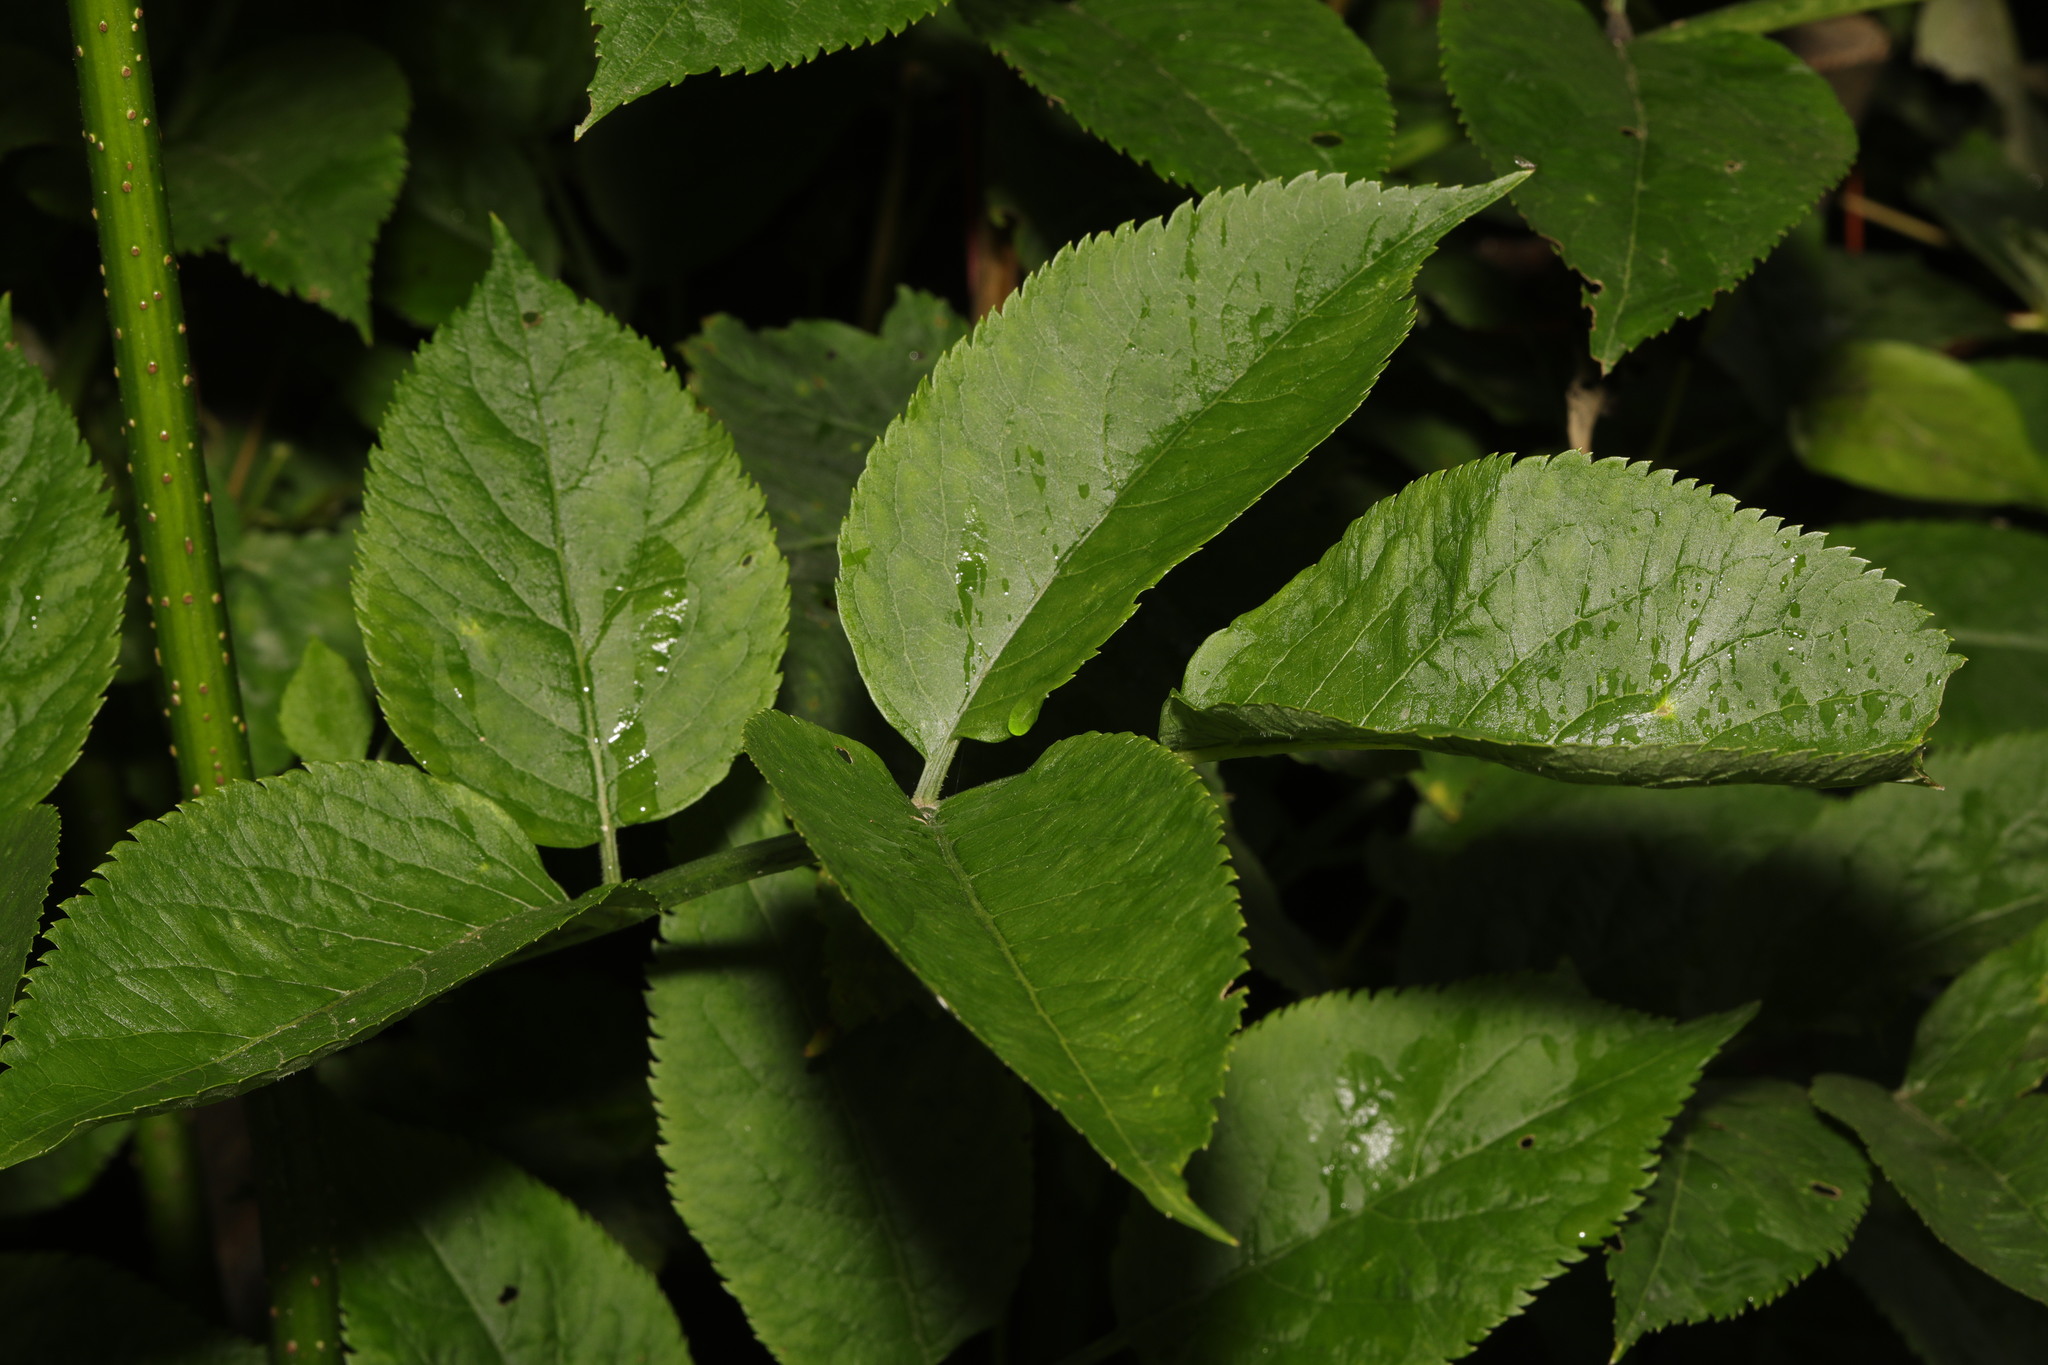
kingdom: Plantae
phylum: Tracheophyta
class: Magnoliopsida
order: Dipsacales
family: Viburnaceae
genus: Sambucus
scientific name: Sambucus nigra
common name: Elder
